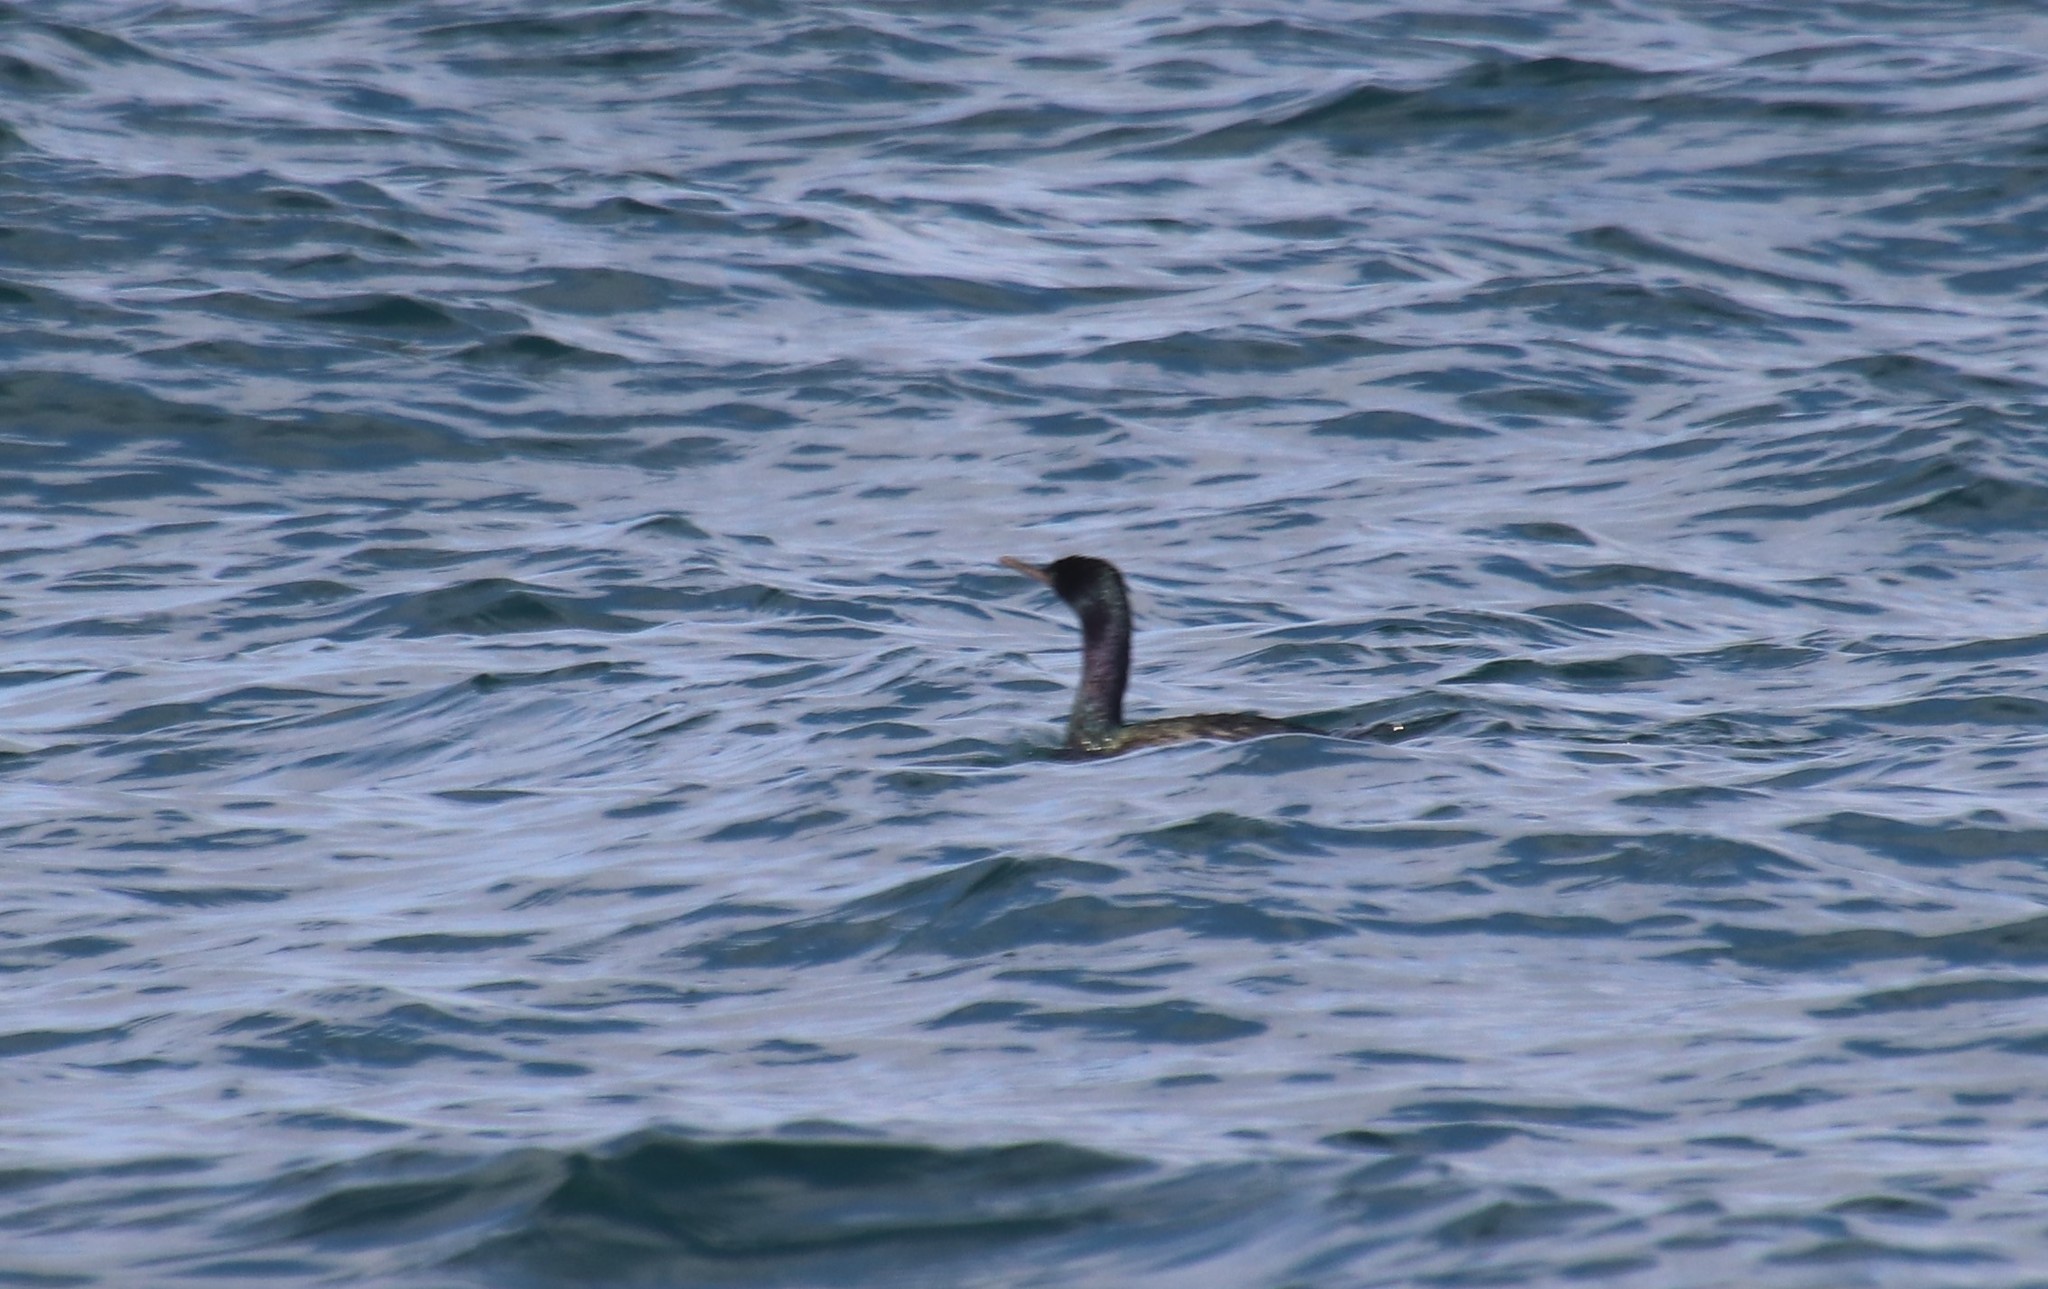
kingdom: Animalia
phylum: Chordata
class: Aves
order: Suliformes
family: Phalacrocoracidae
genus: Phalacrocorax
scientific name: Phalacrocorax pelagicus
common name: Pelagic cormorant
